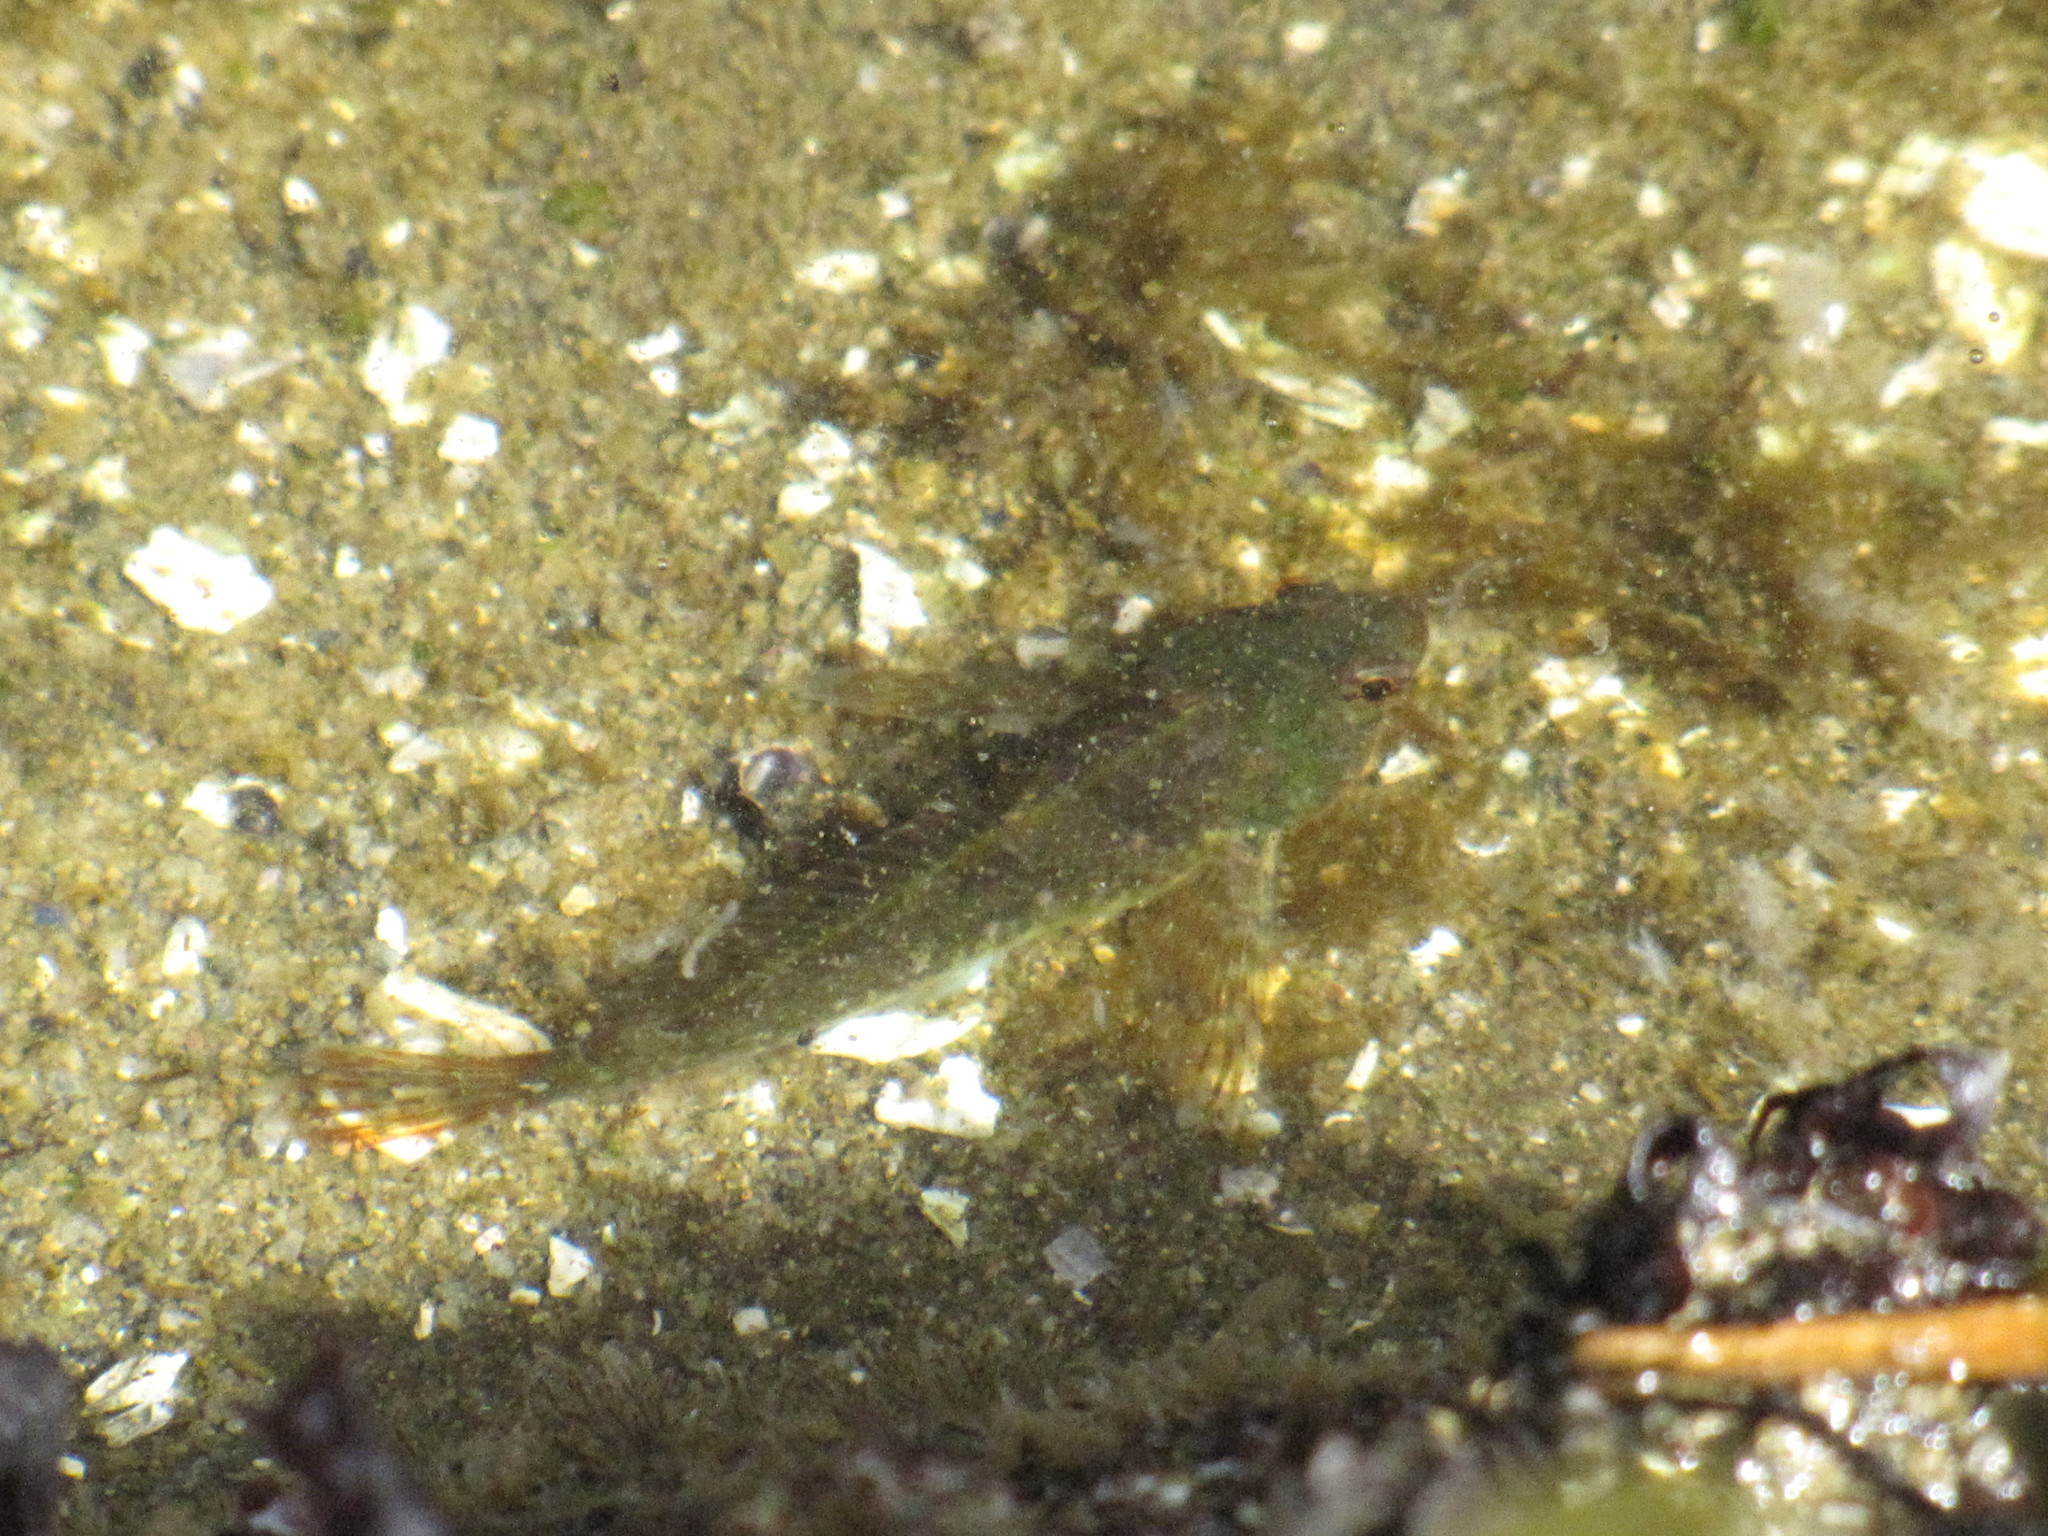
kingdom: Animalia
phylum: Chordata
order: Scorpaeniformes
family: Cottidae
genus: Oligocottus
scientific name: Oligocottus maculosus
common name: Tidepool sculpin
